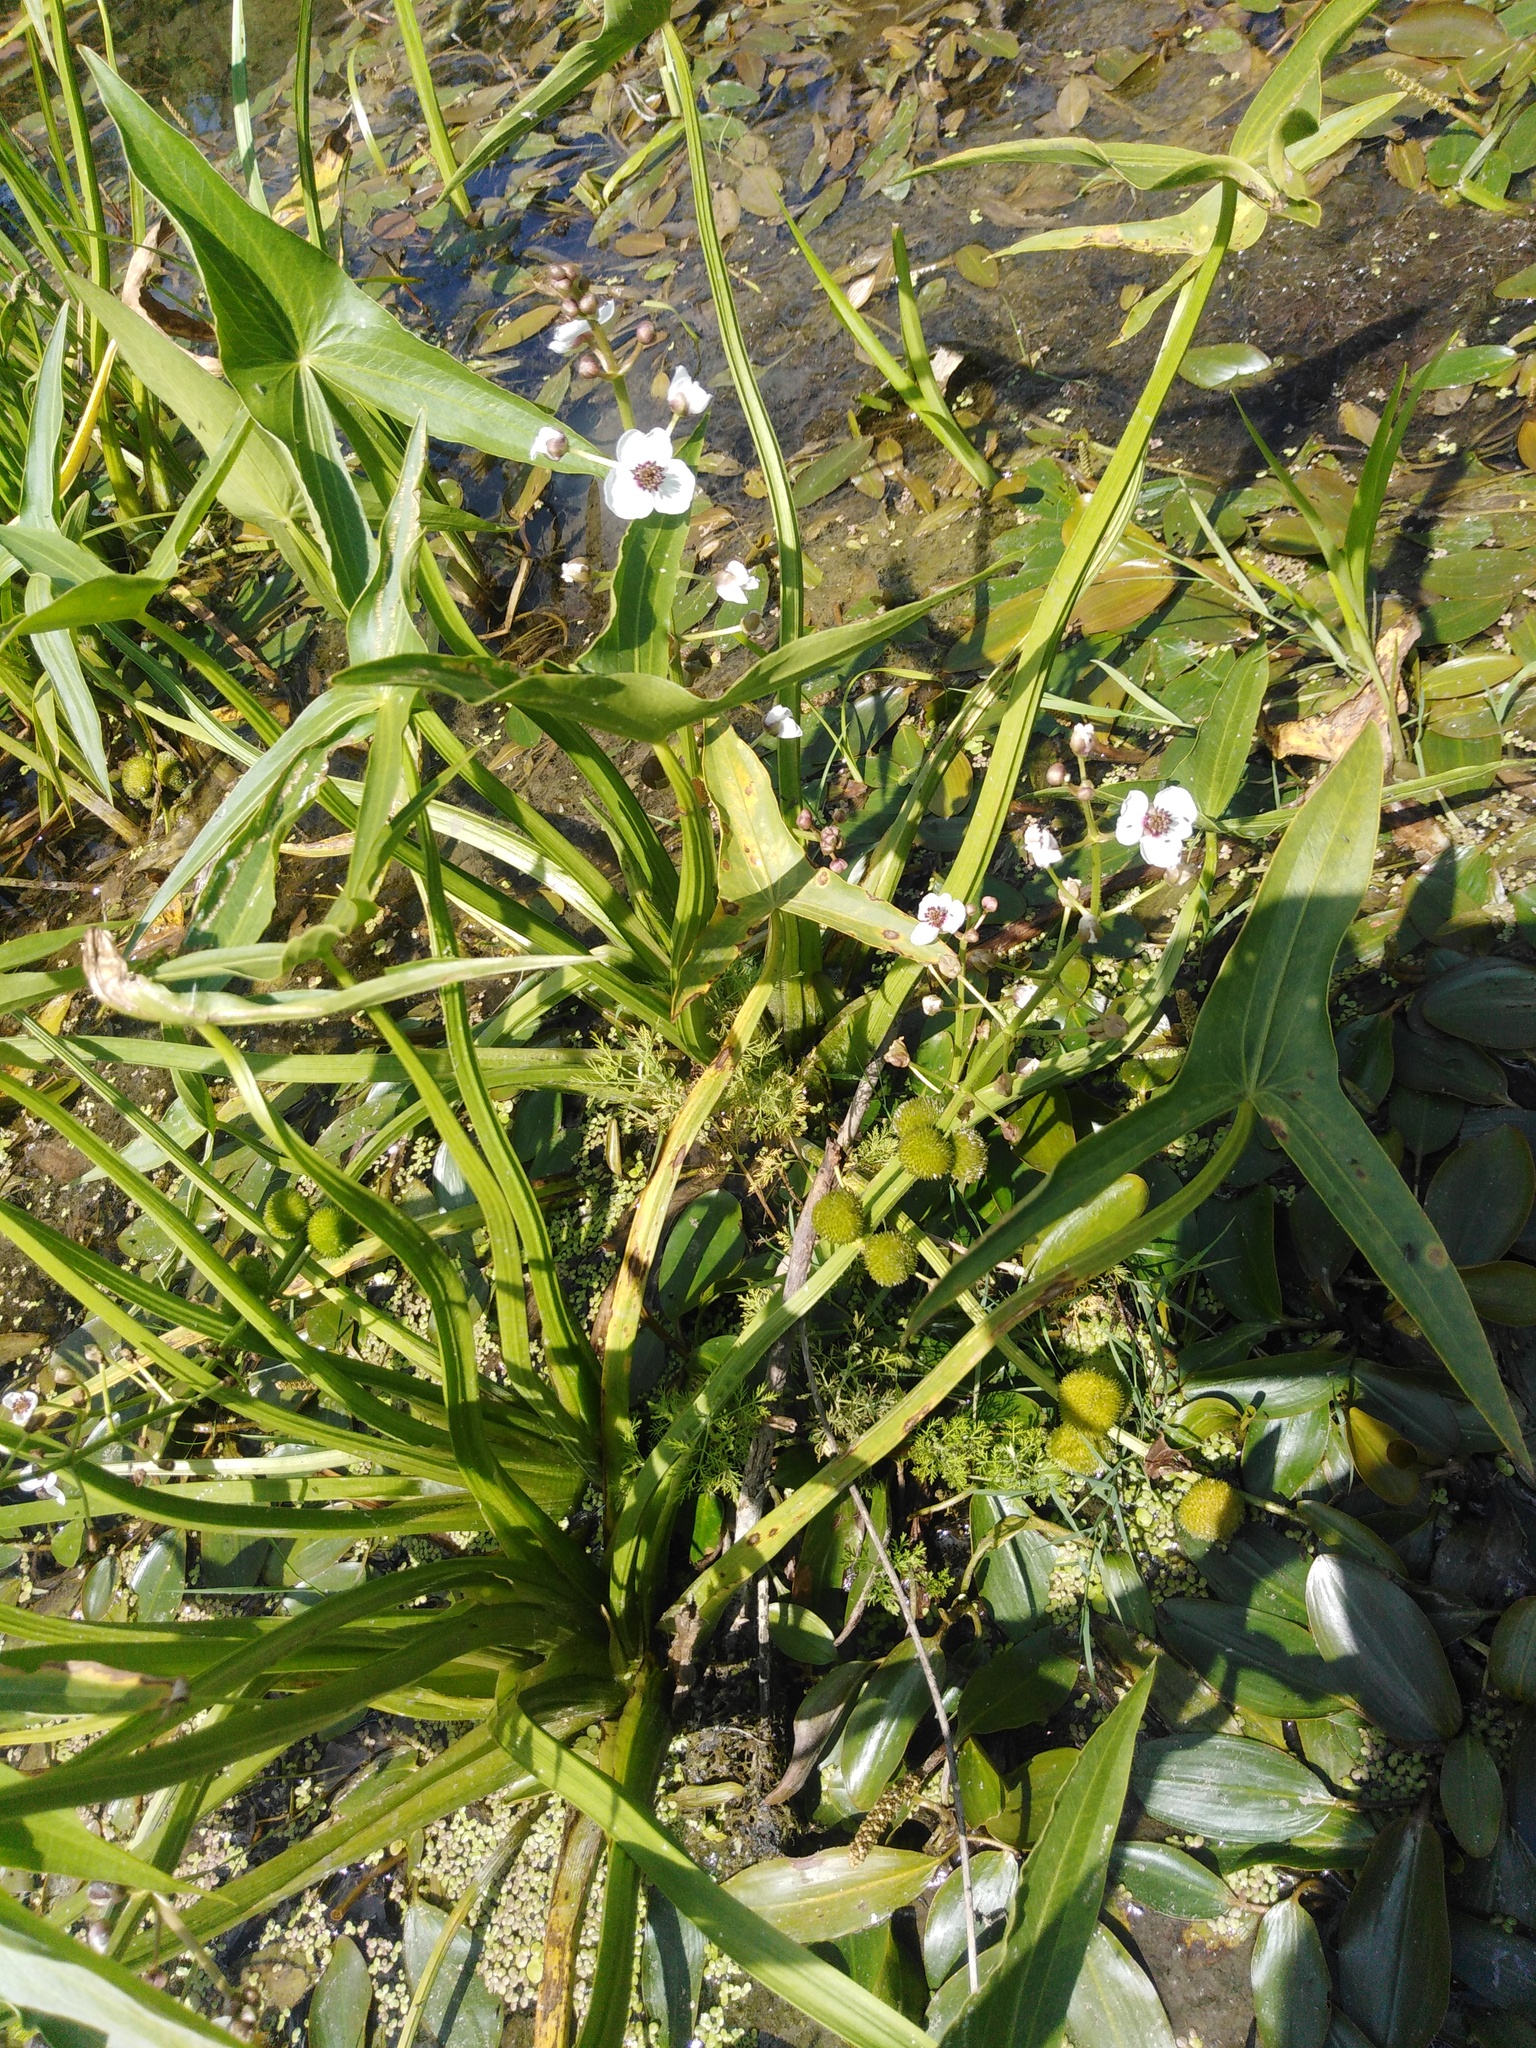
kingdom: Plantae
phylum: Tracheophyta
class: Liliopsida
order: Alismatales
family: Alismataceae
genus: Sagittaria
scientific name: Sagittaria sagittifolia
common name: Arrowhead
